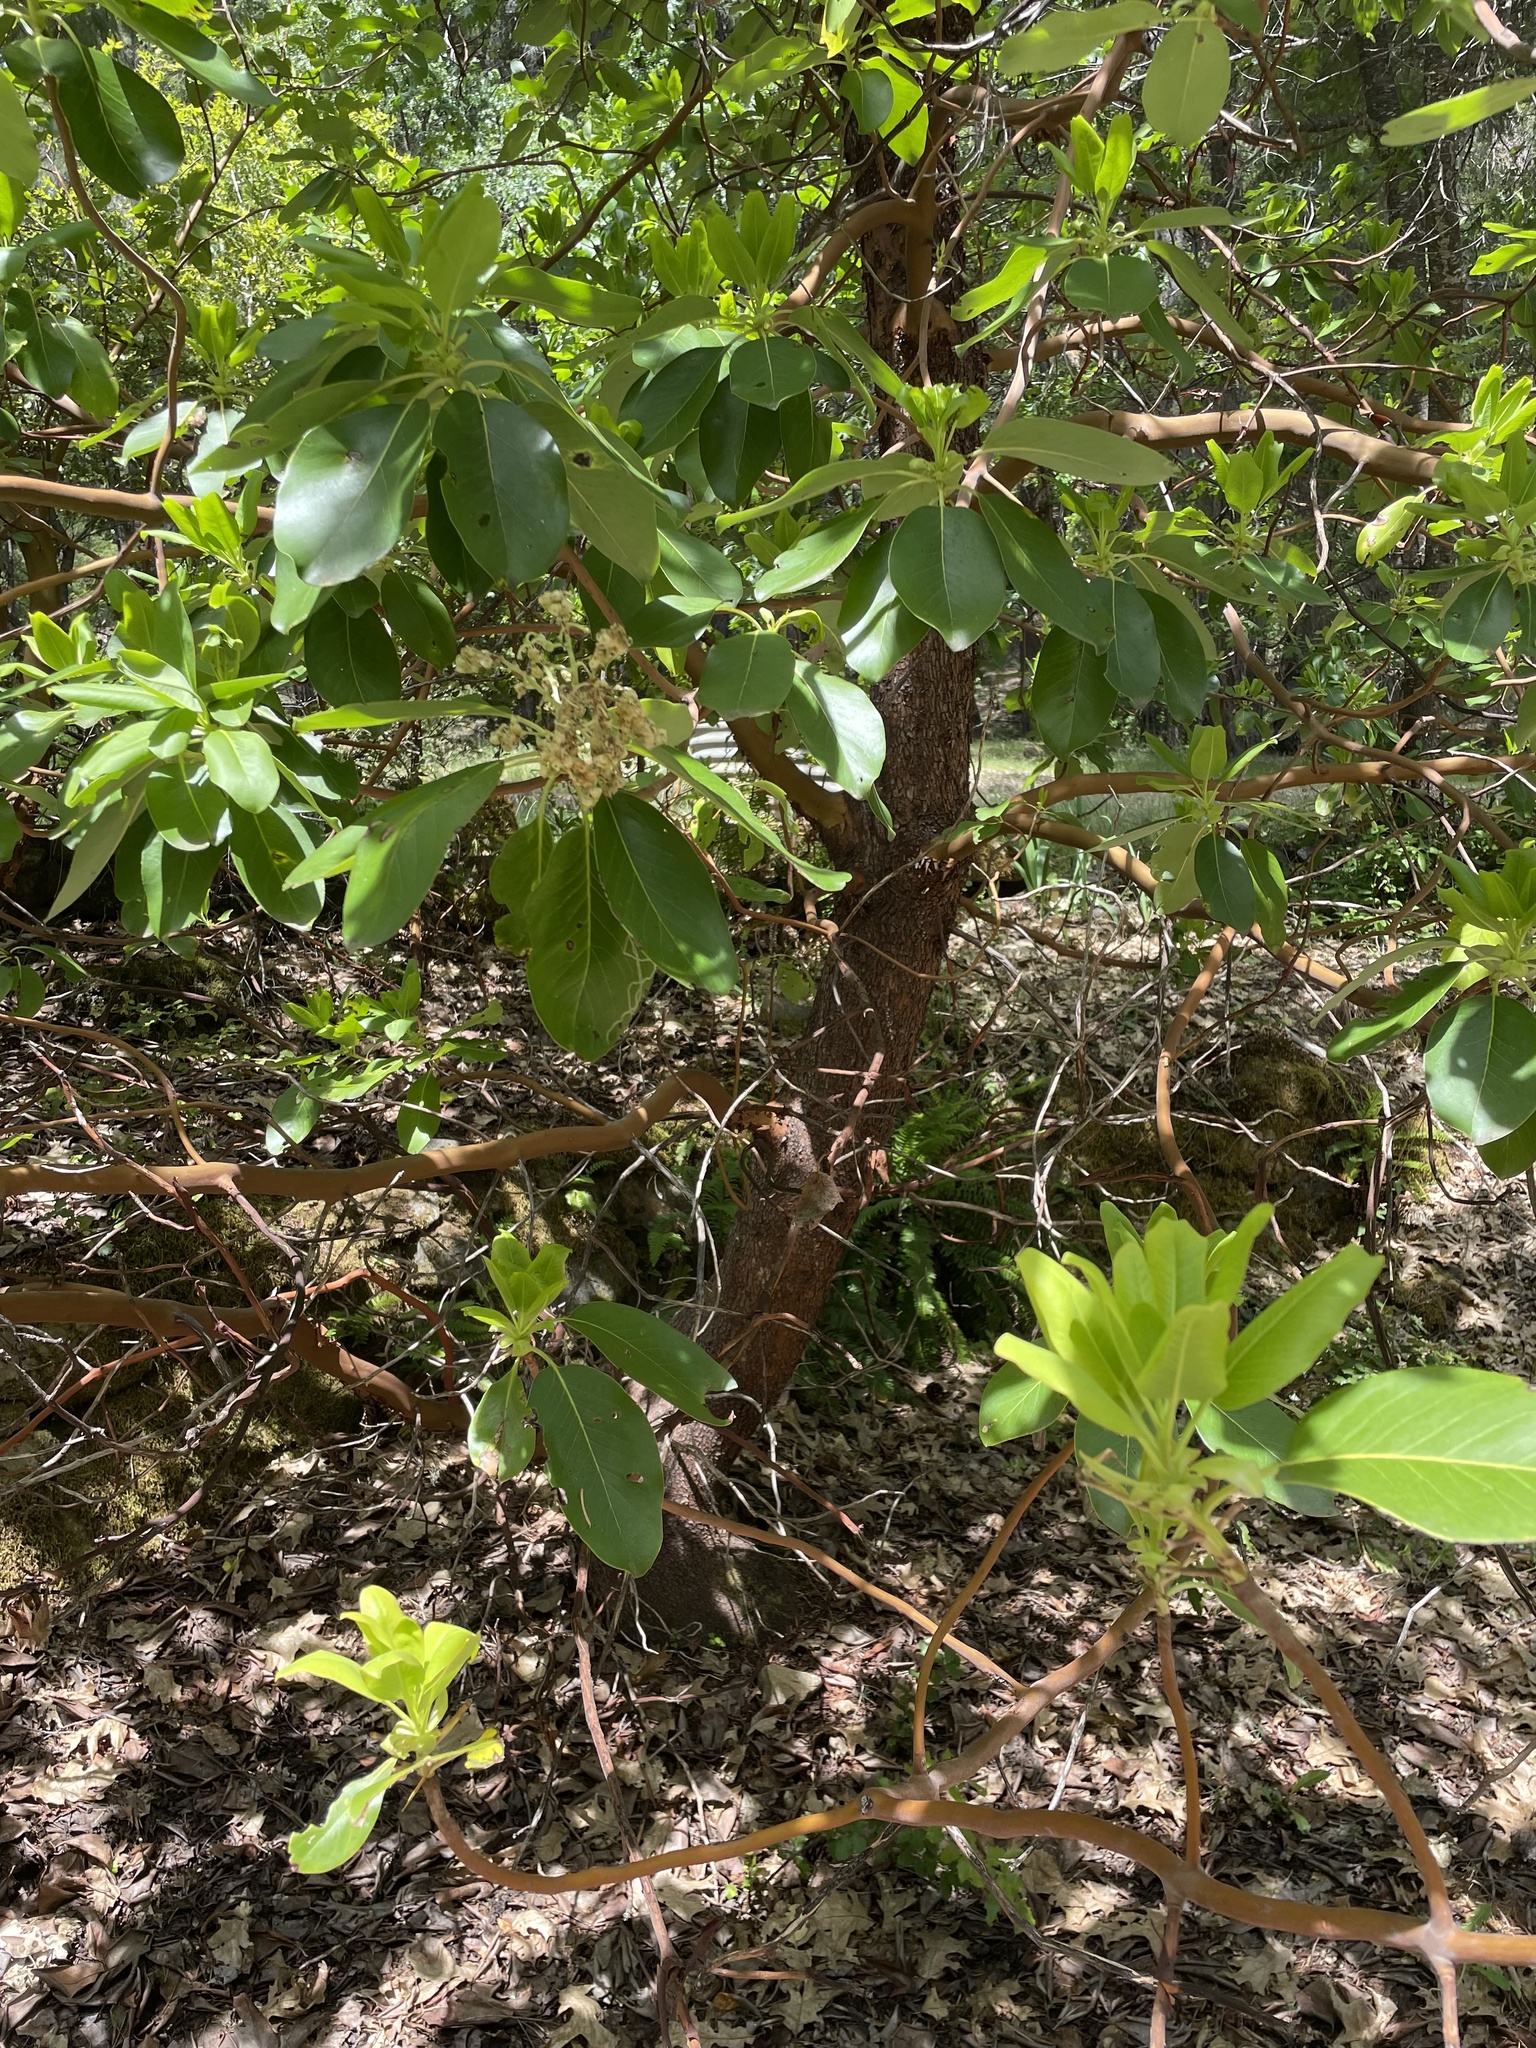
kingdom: Plantae
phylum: Tracheophyta
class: Magnoliopsida
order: Ericales
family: Ericaceae
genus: Arbutus
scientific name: Arbutus menziesii
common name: Pacific madrone
